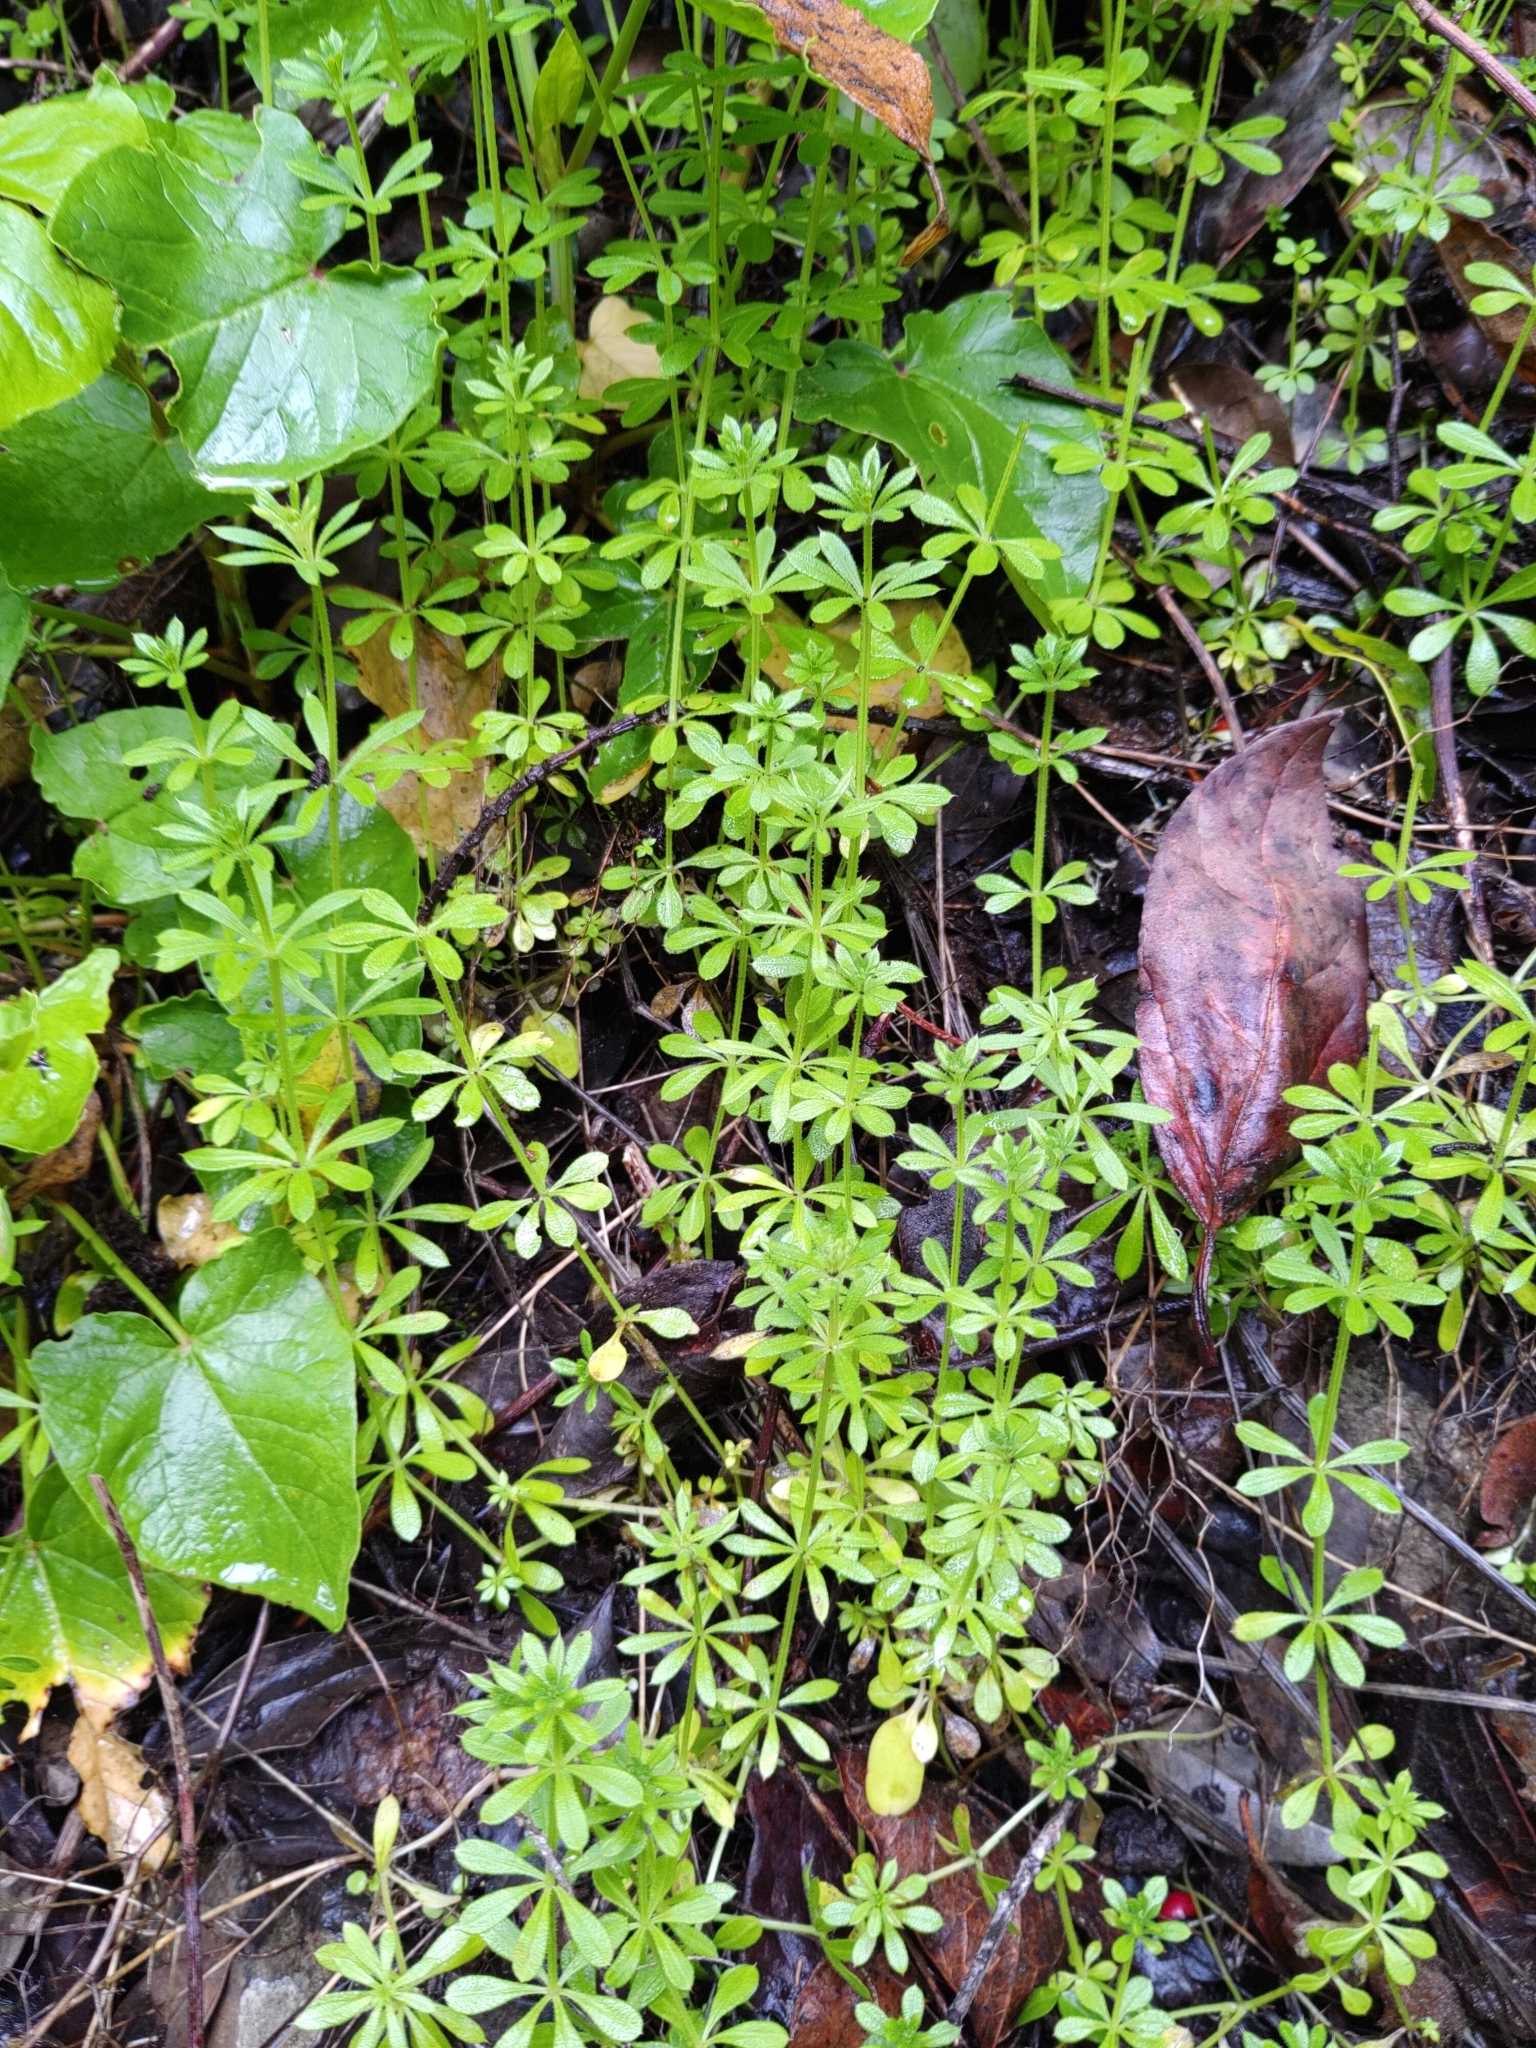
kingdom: Plantae
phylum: Tracheophyta
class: Magnoliopsida
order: Gentianales
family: Rubiaceae
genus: Galium
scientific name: Galium aparine
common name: Cleavers
